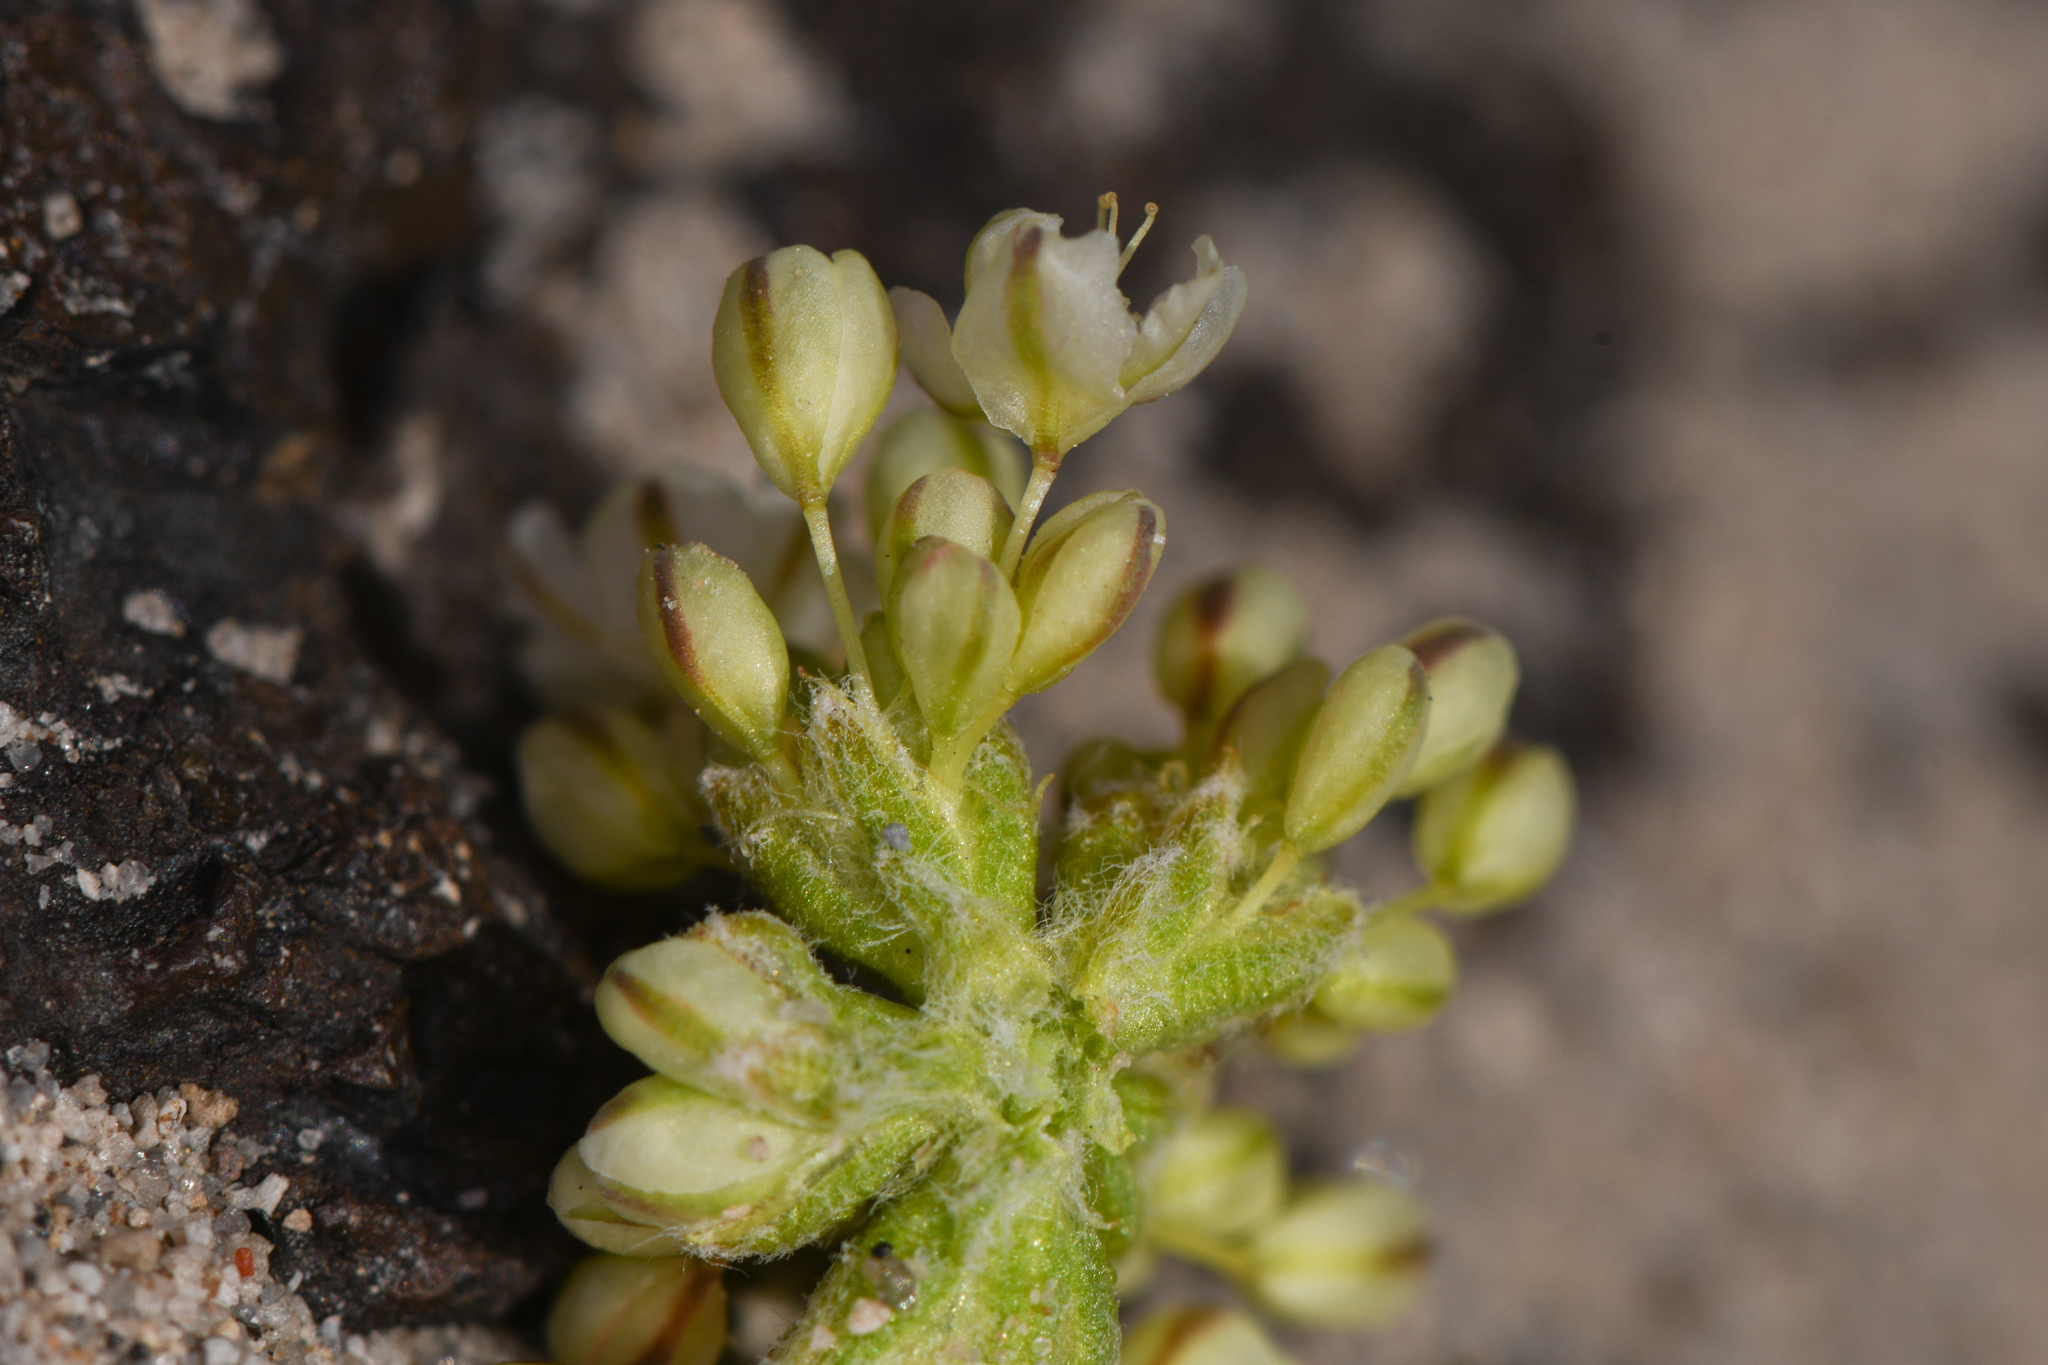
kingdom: Plantae
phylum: Tracheophyta
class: Magnoliopsida
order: Caryophyllales
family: Polygonaceae
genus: Eriogonum
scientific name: Eriogonum ovalifolium
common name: Cushion buckwheat
